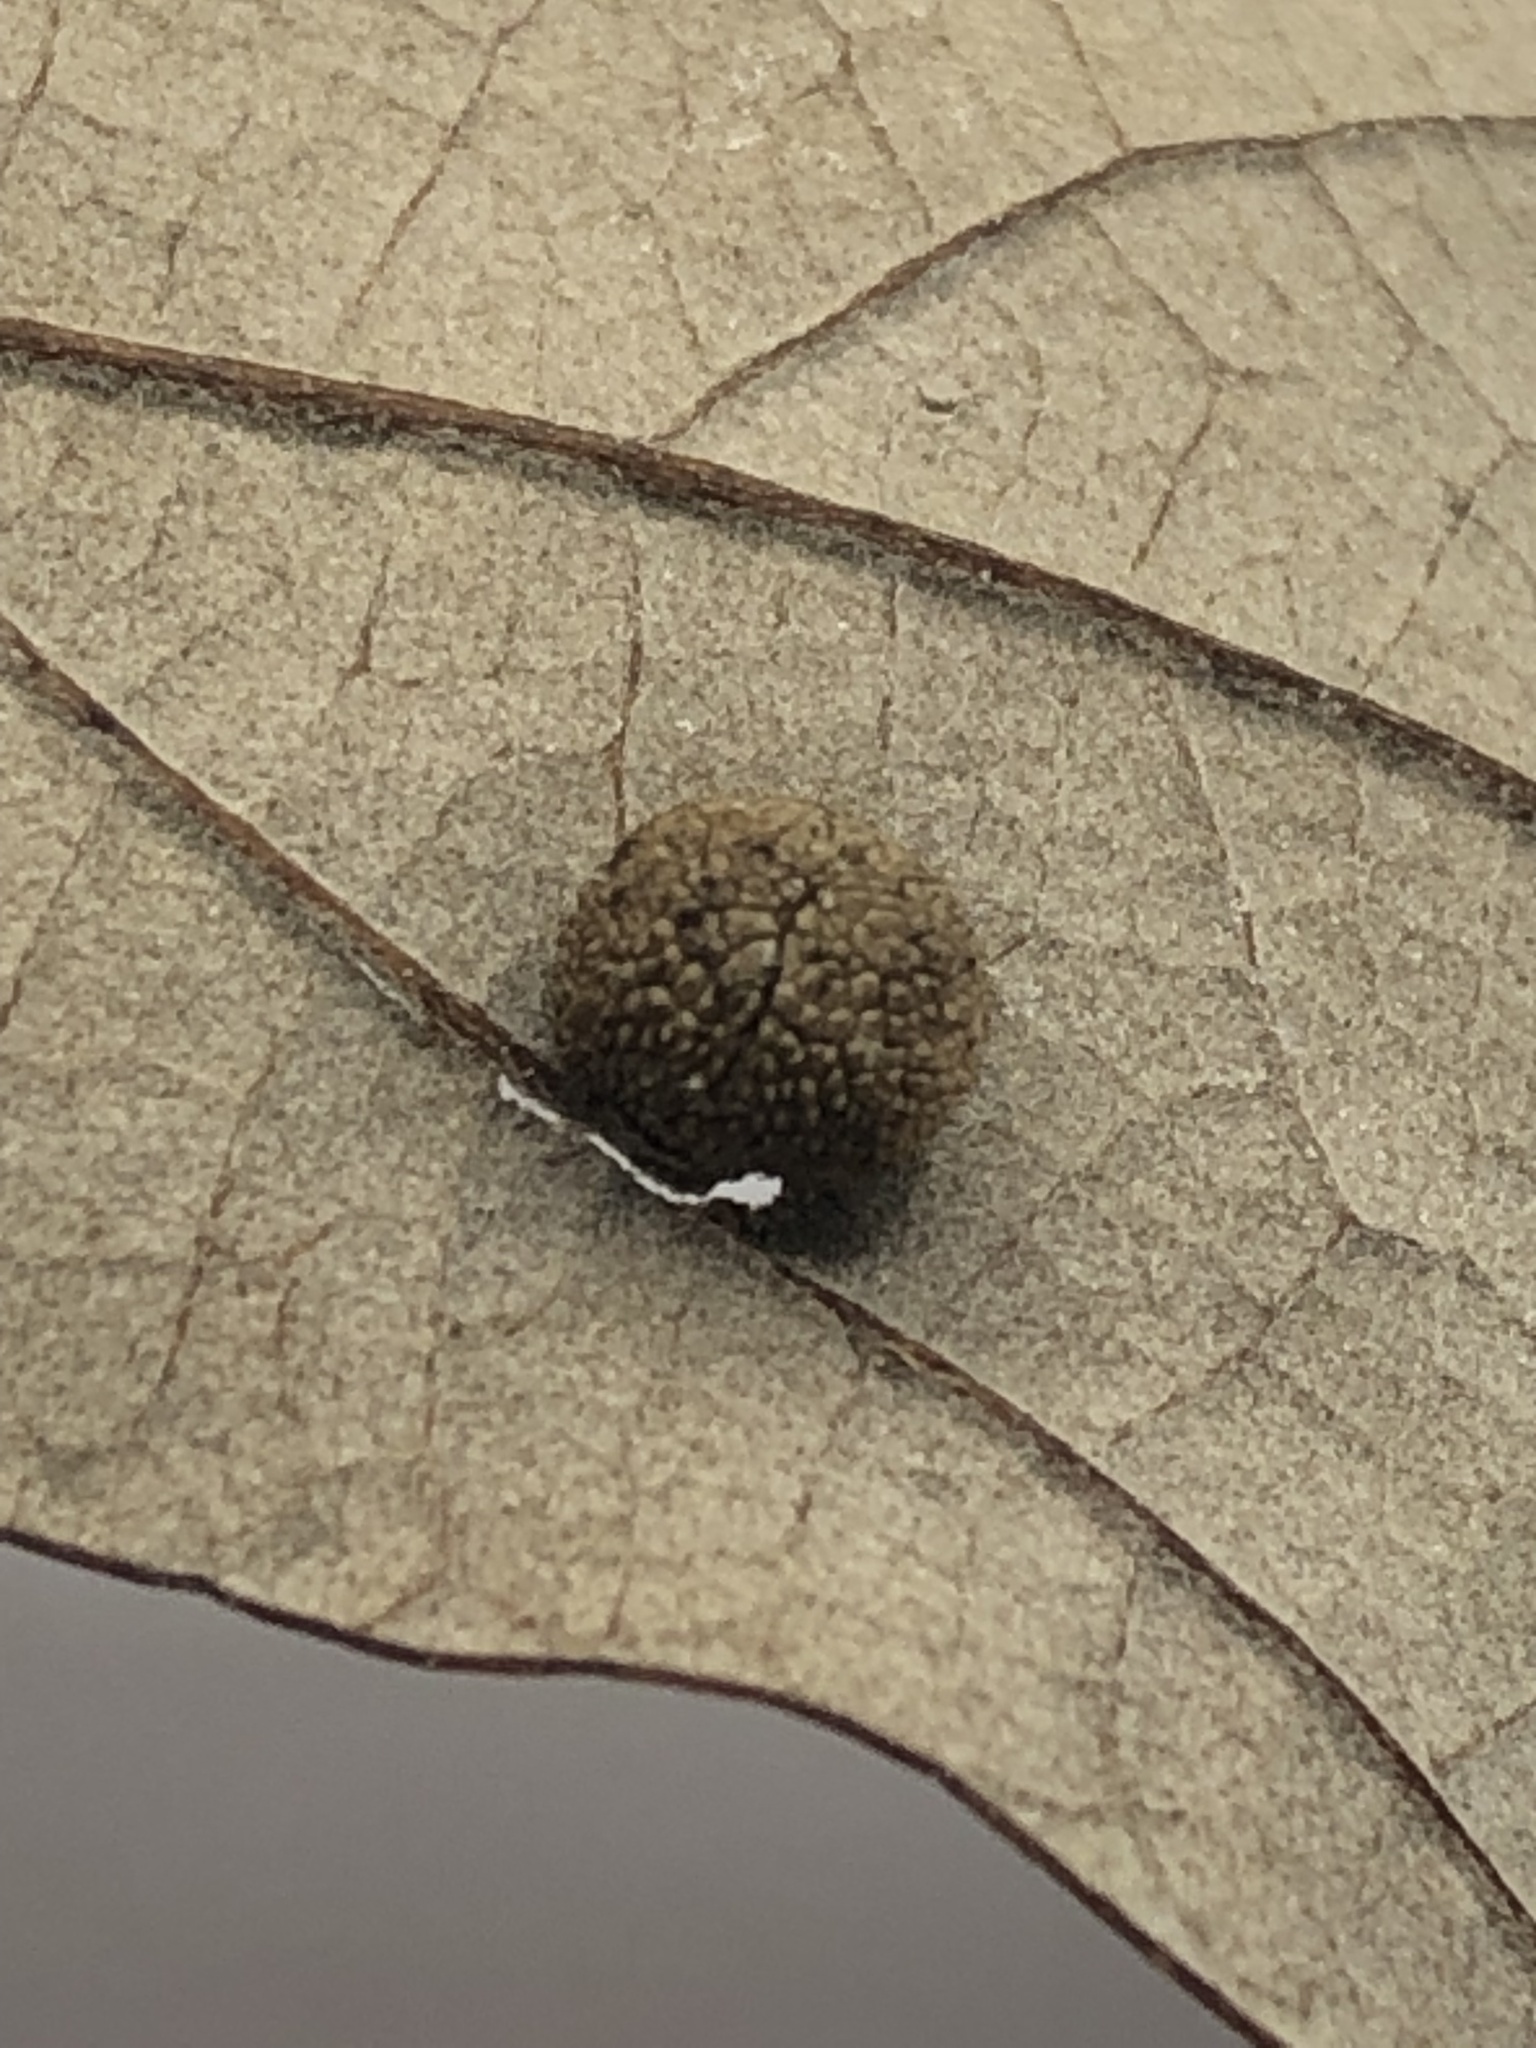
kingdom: Animalia
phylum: Arthropoda
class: Insecta
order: Hymenoptera
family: Cynipidae
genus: Acraspis
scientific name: Acraspis quercushirta
